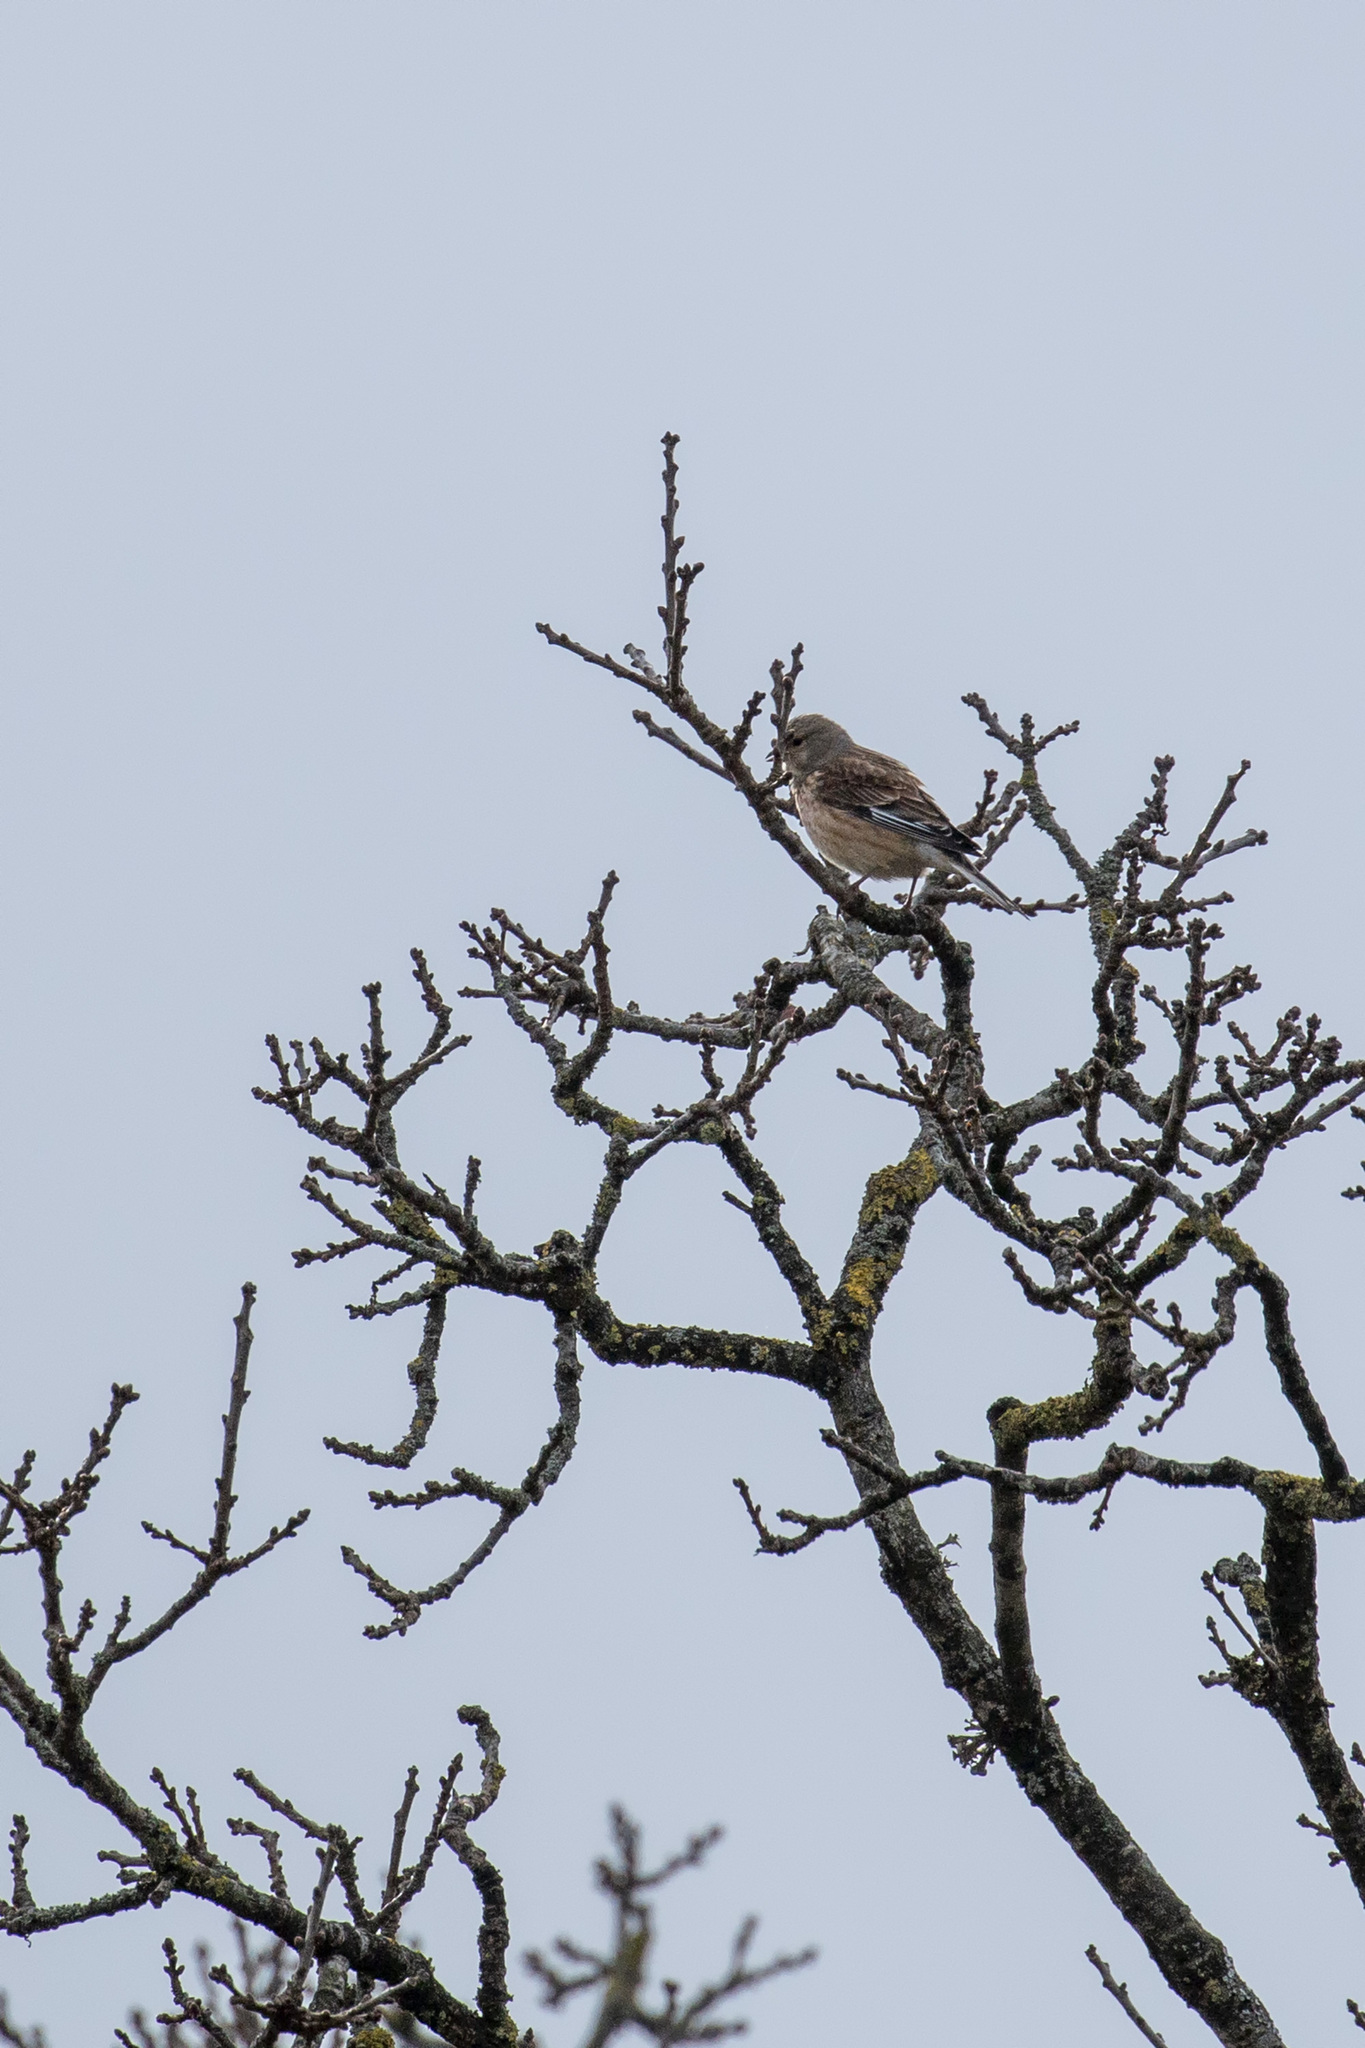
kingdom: Animalia
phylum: Chordata
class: Aves
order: Passeriformes
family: Fringillidae
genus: Linaria
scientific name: Linaria cannabina
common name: Common linnet
